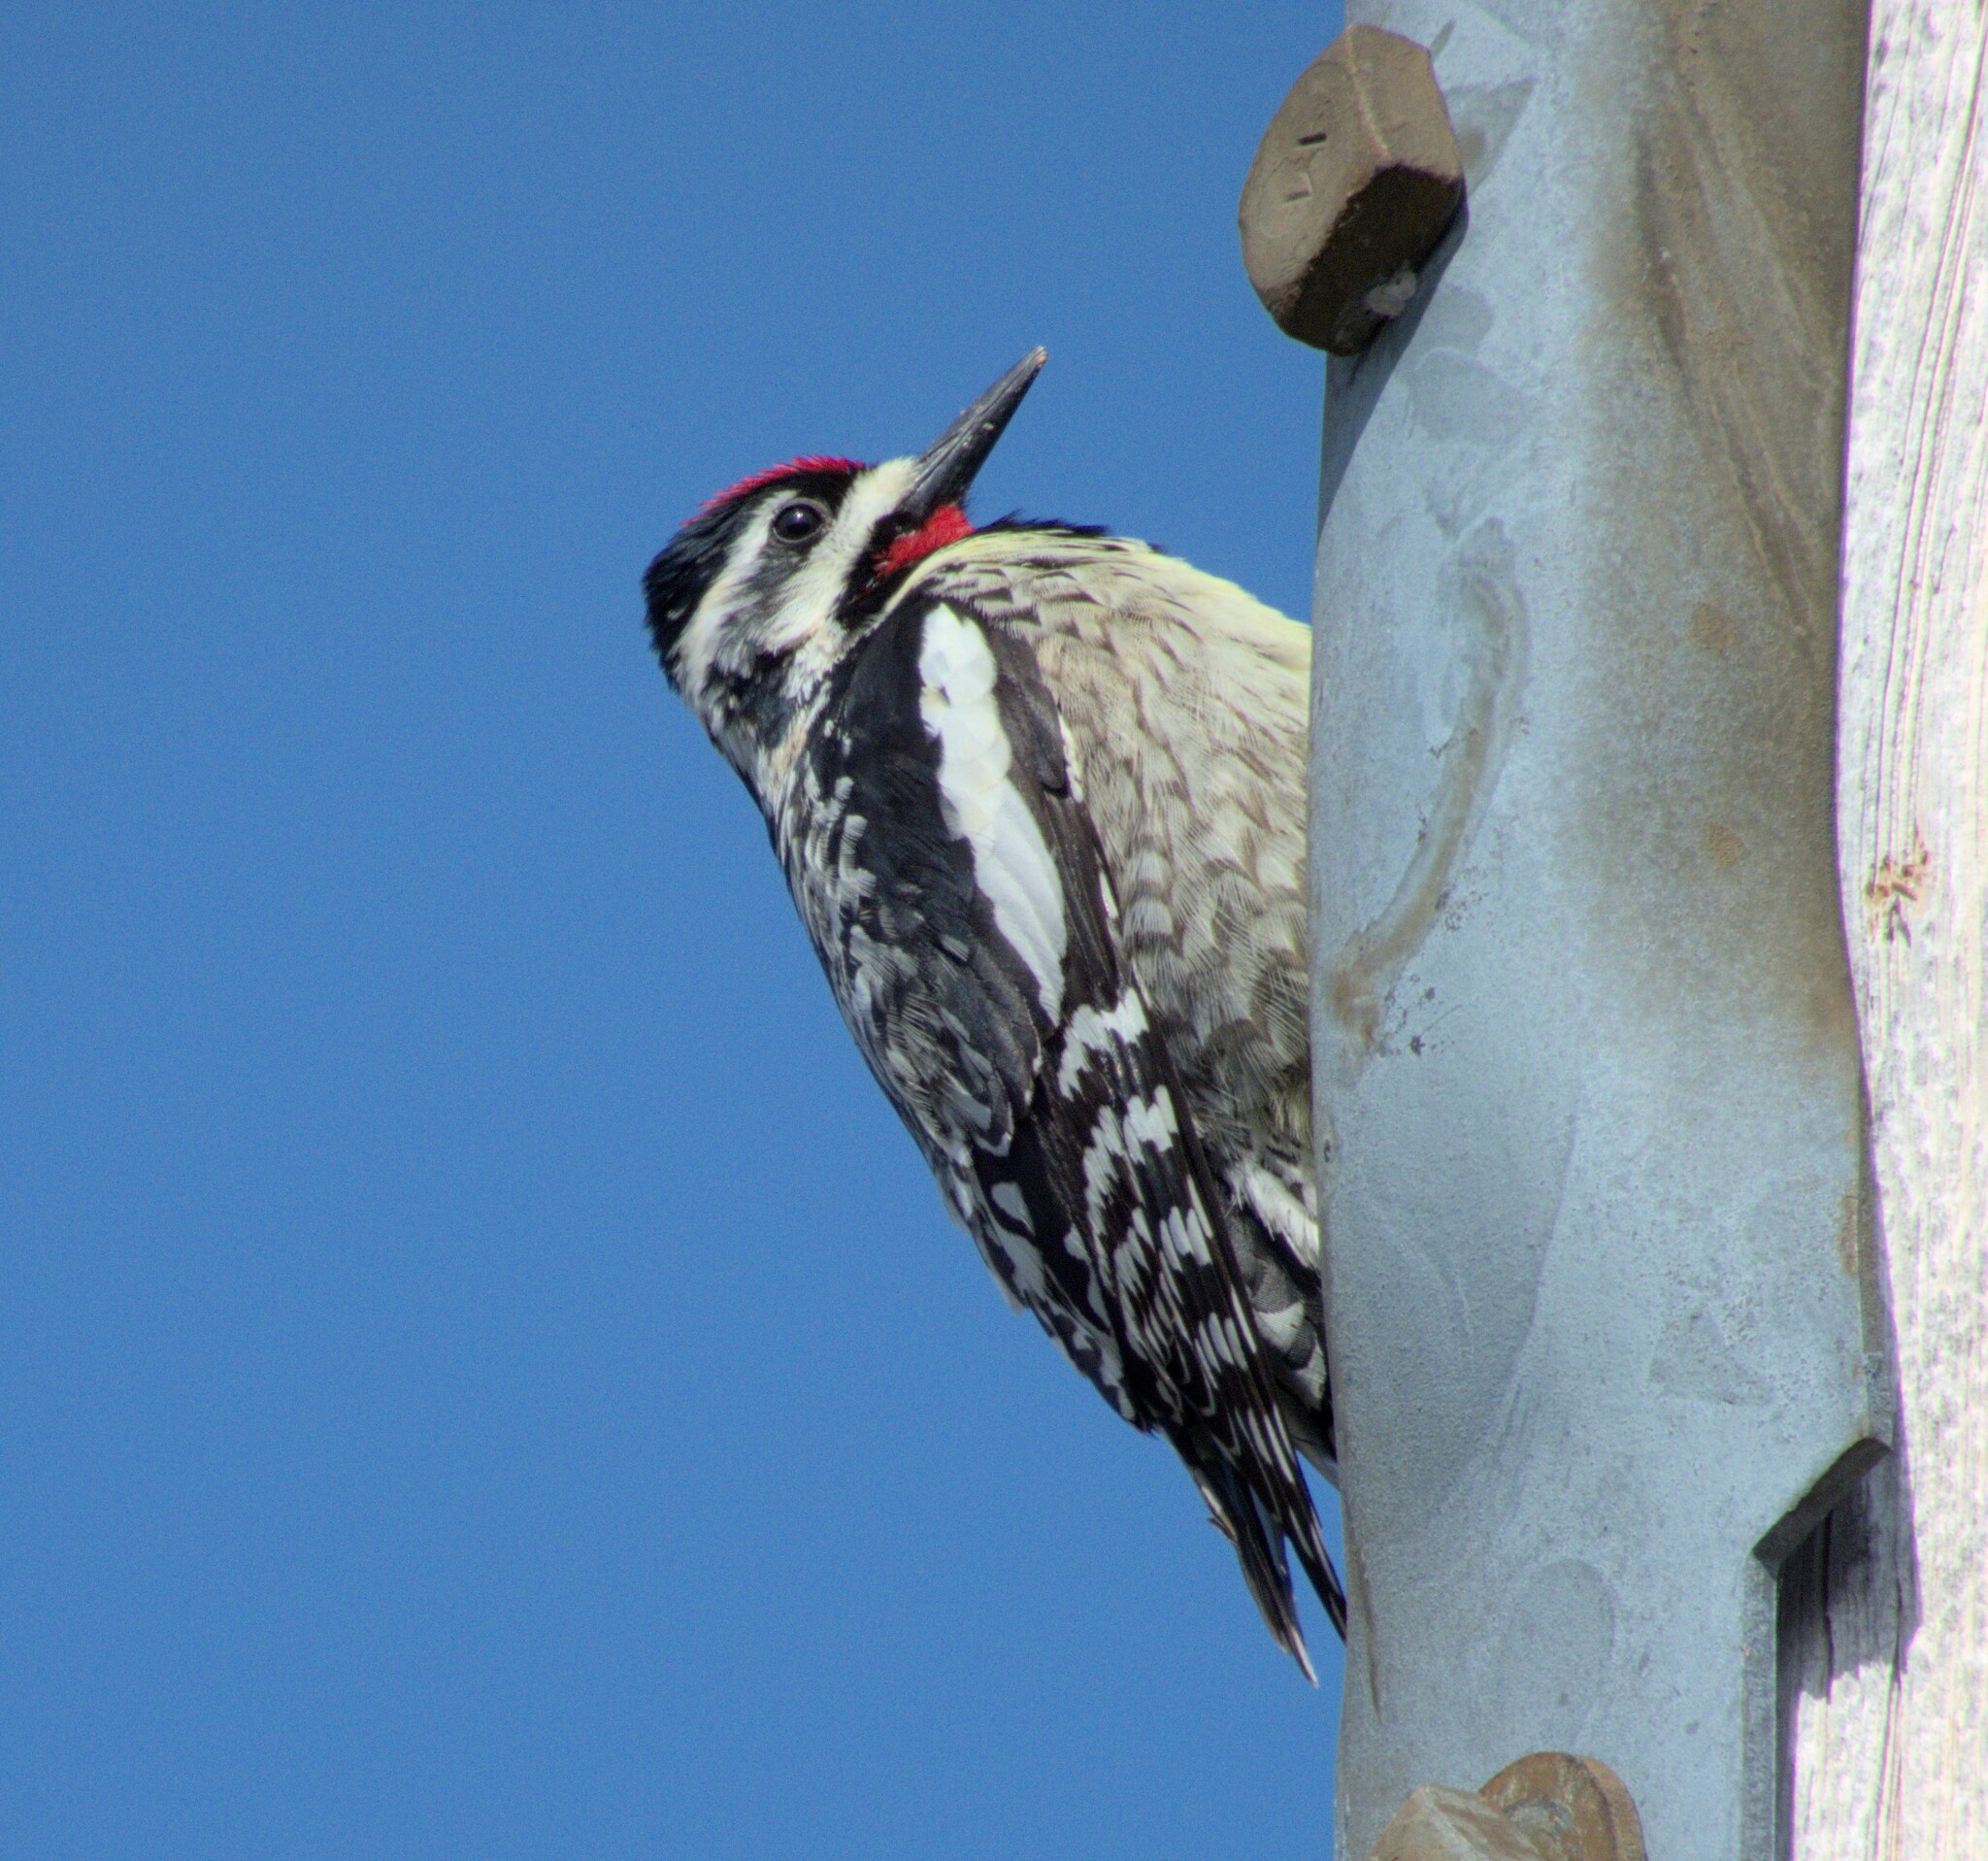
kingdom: Animalia
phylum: Chordata
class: Aves
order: Piciformes
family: Picidae
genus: Sphyrapicus
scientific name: Sphyrapicus varius
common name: Yellow-bellied sapsucker
